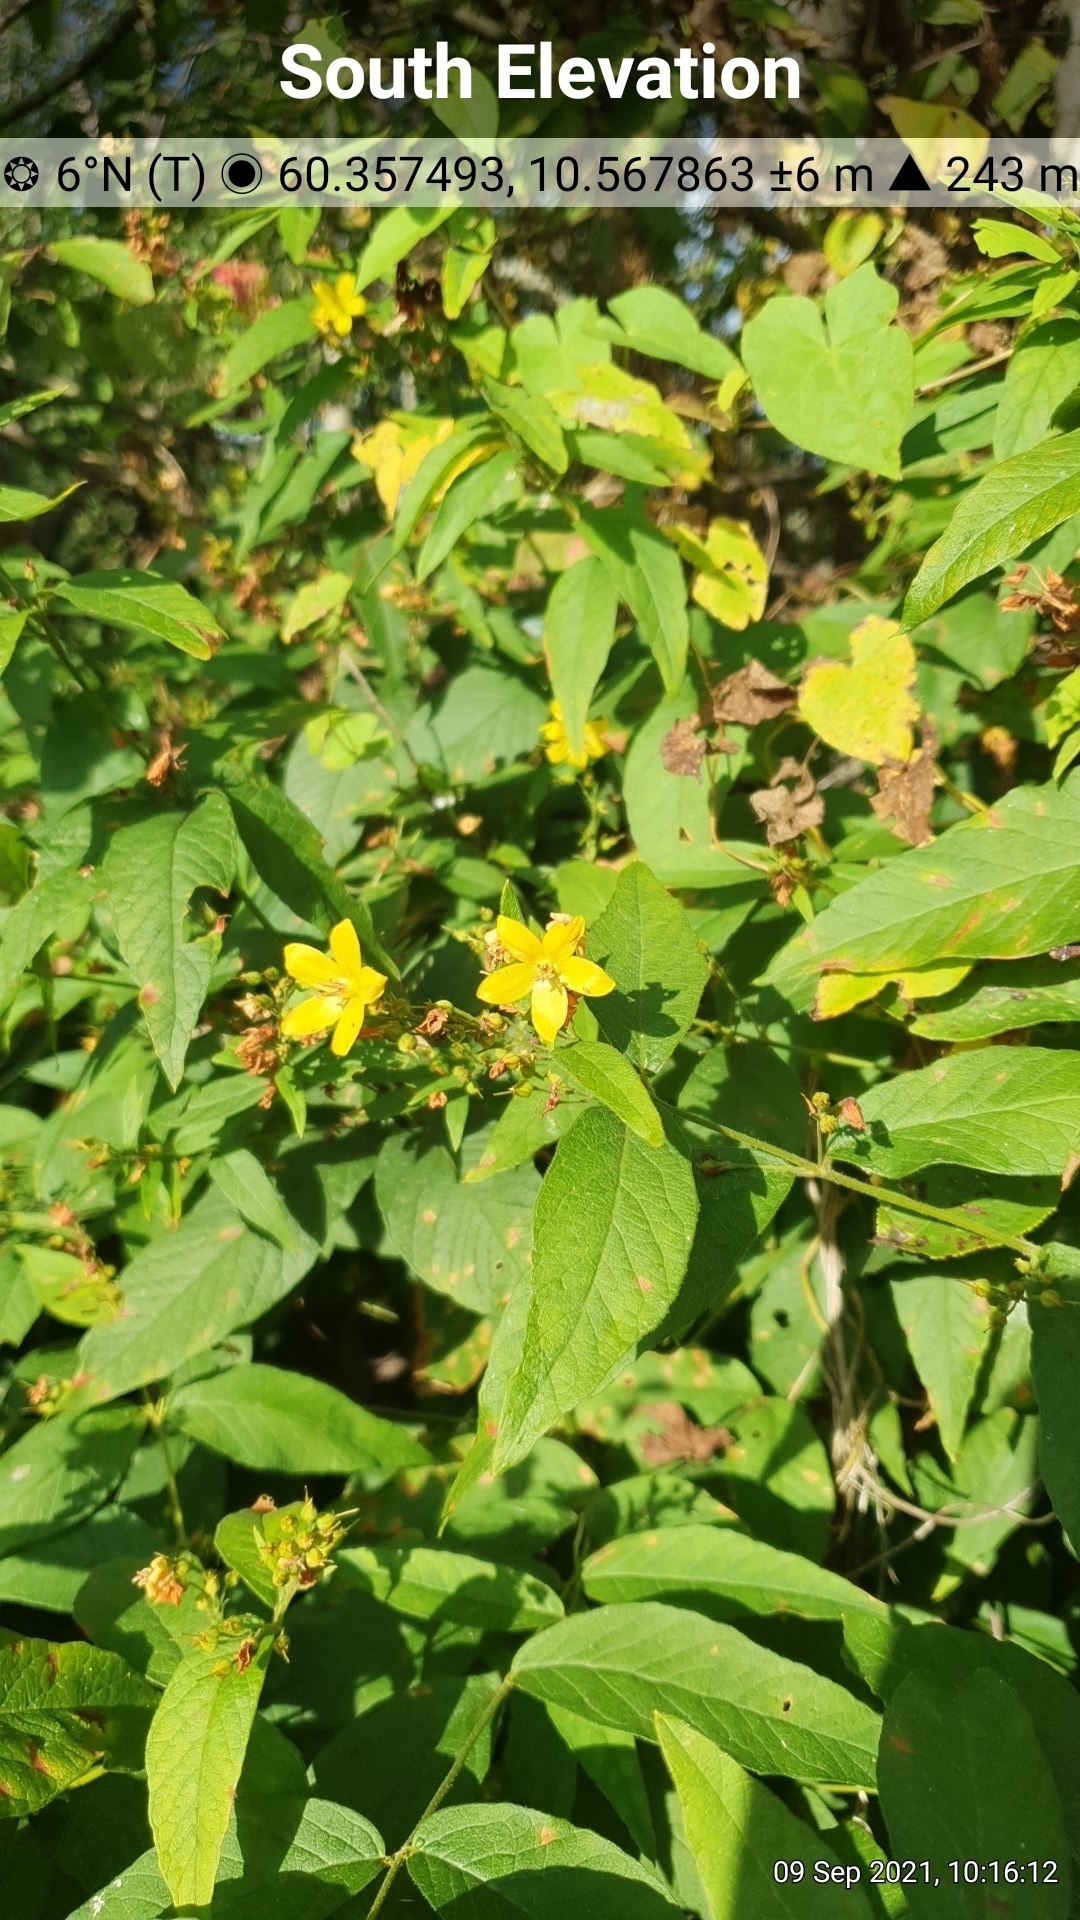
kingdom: Plantae
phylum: Tracheophyta
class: Magnoliopsida
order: Ericales
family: Primulaceae
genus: Lysimachia
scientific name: Lysimachia vulgaris
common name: Yellow loosestrife
